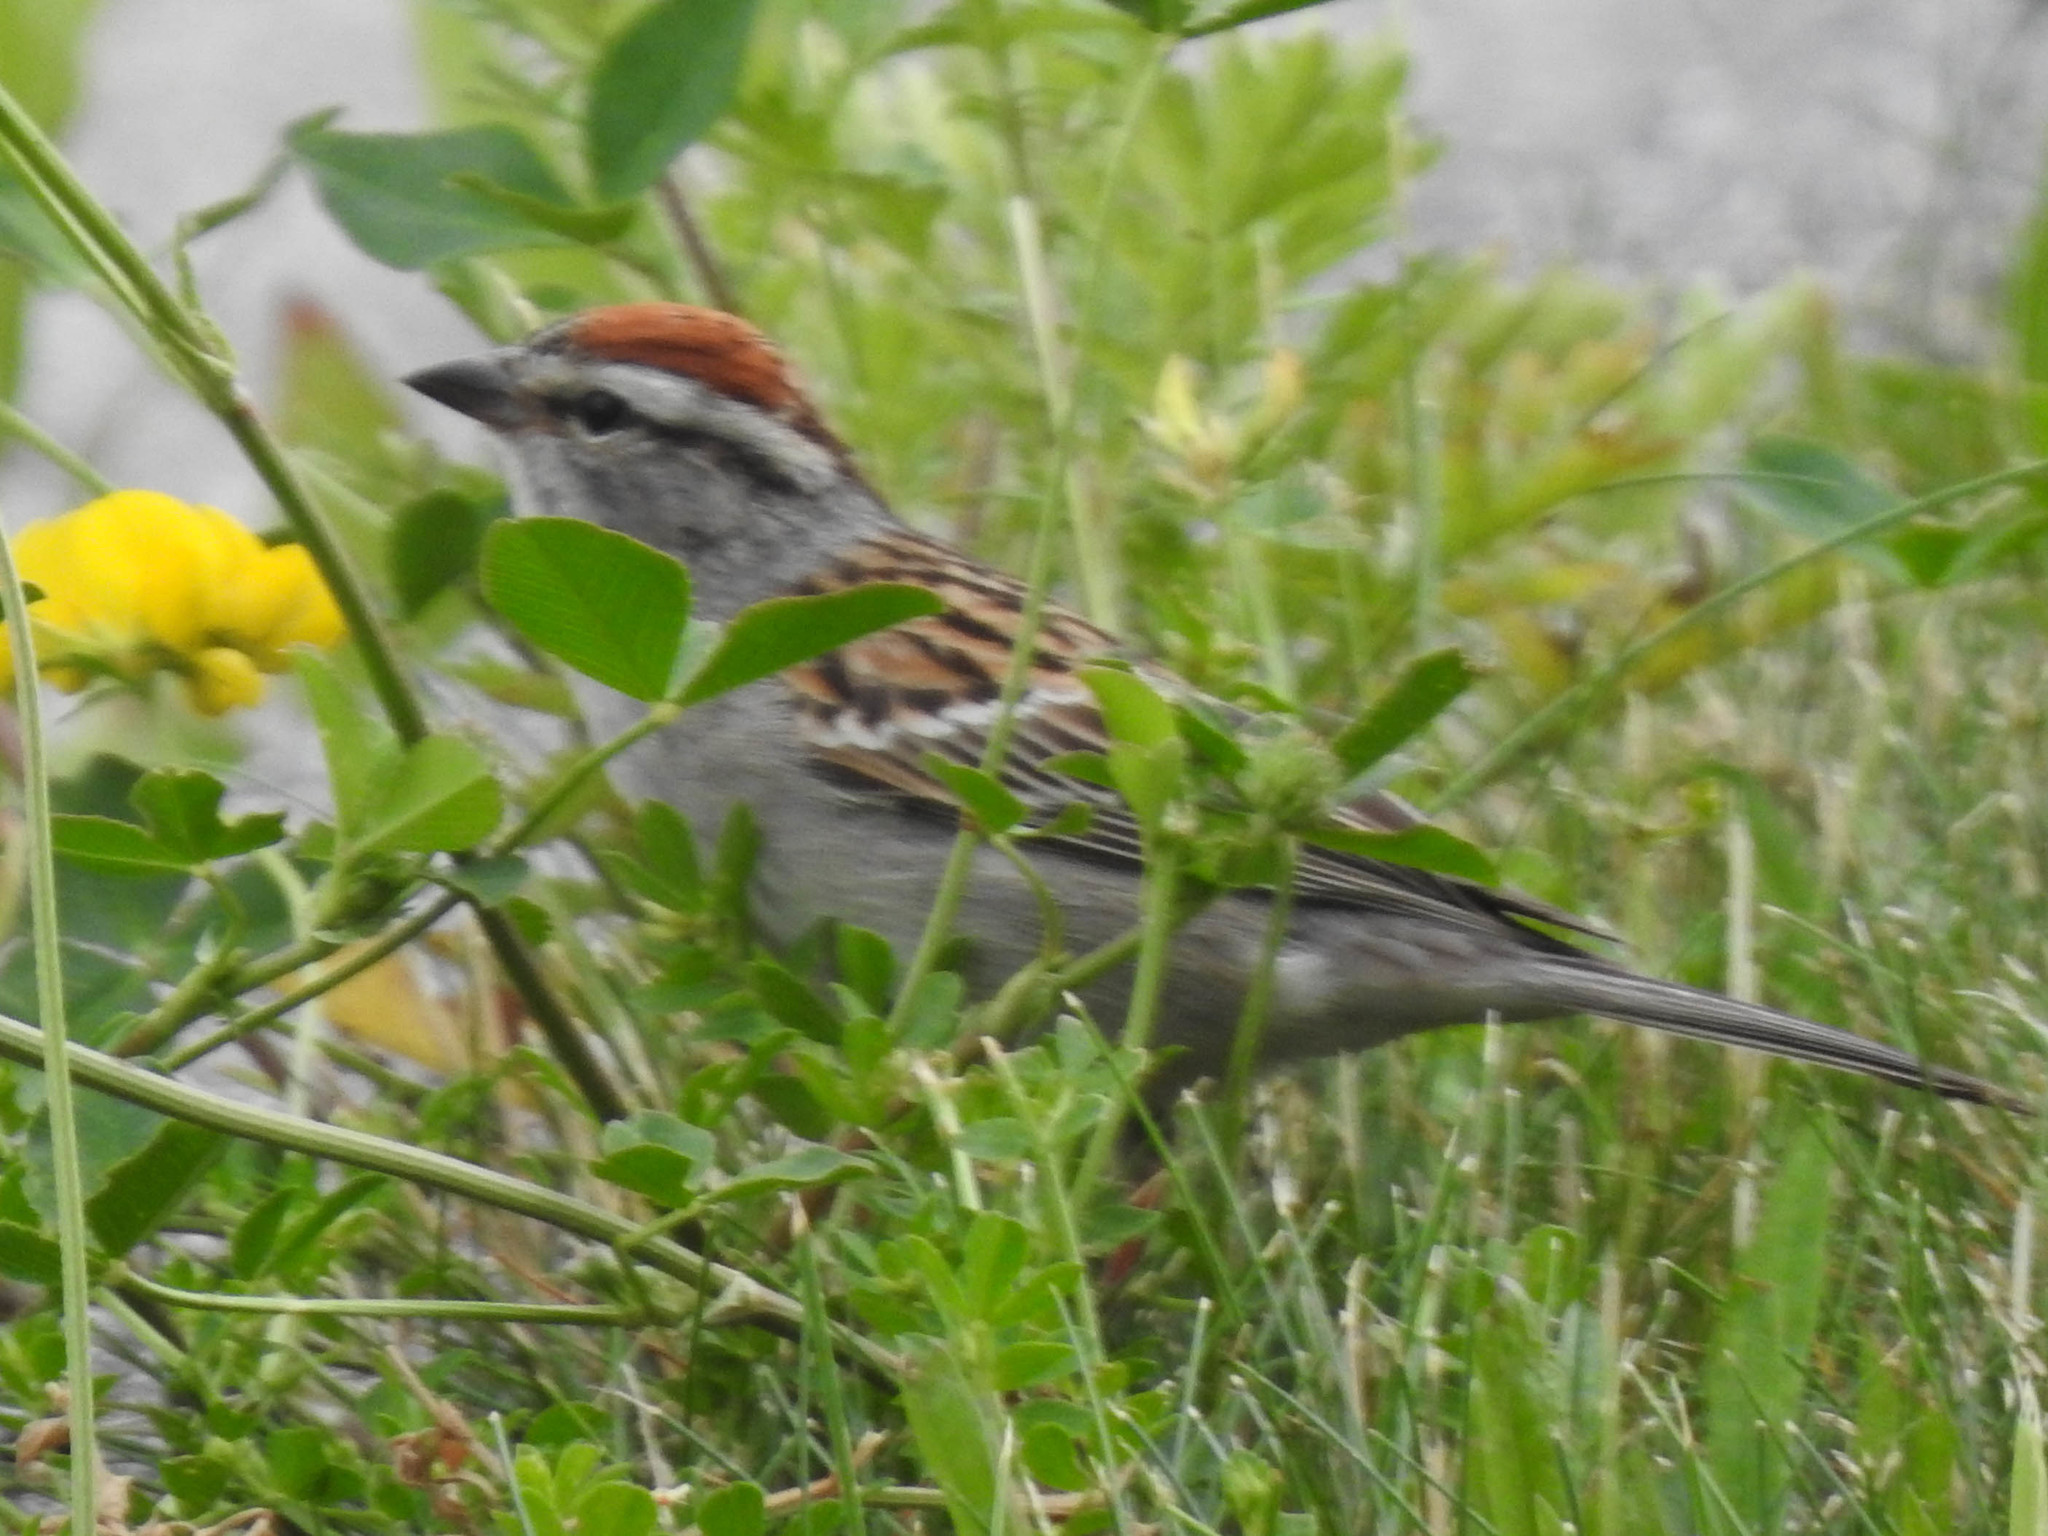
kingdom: Animalia
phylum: Chordata
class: Aves
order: Passeriformes
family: Passerellidae
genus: Spizella
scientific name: Spizella passerina
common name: Chipping sparrow
